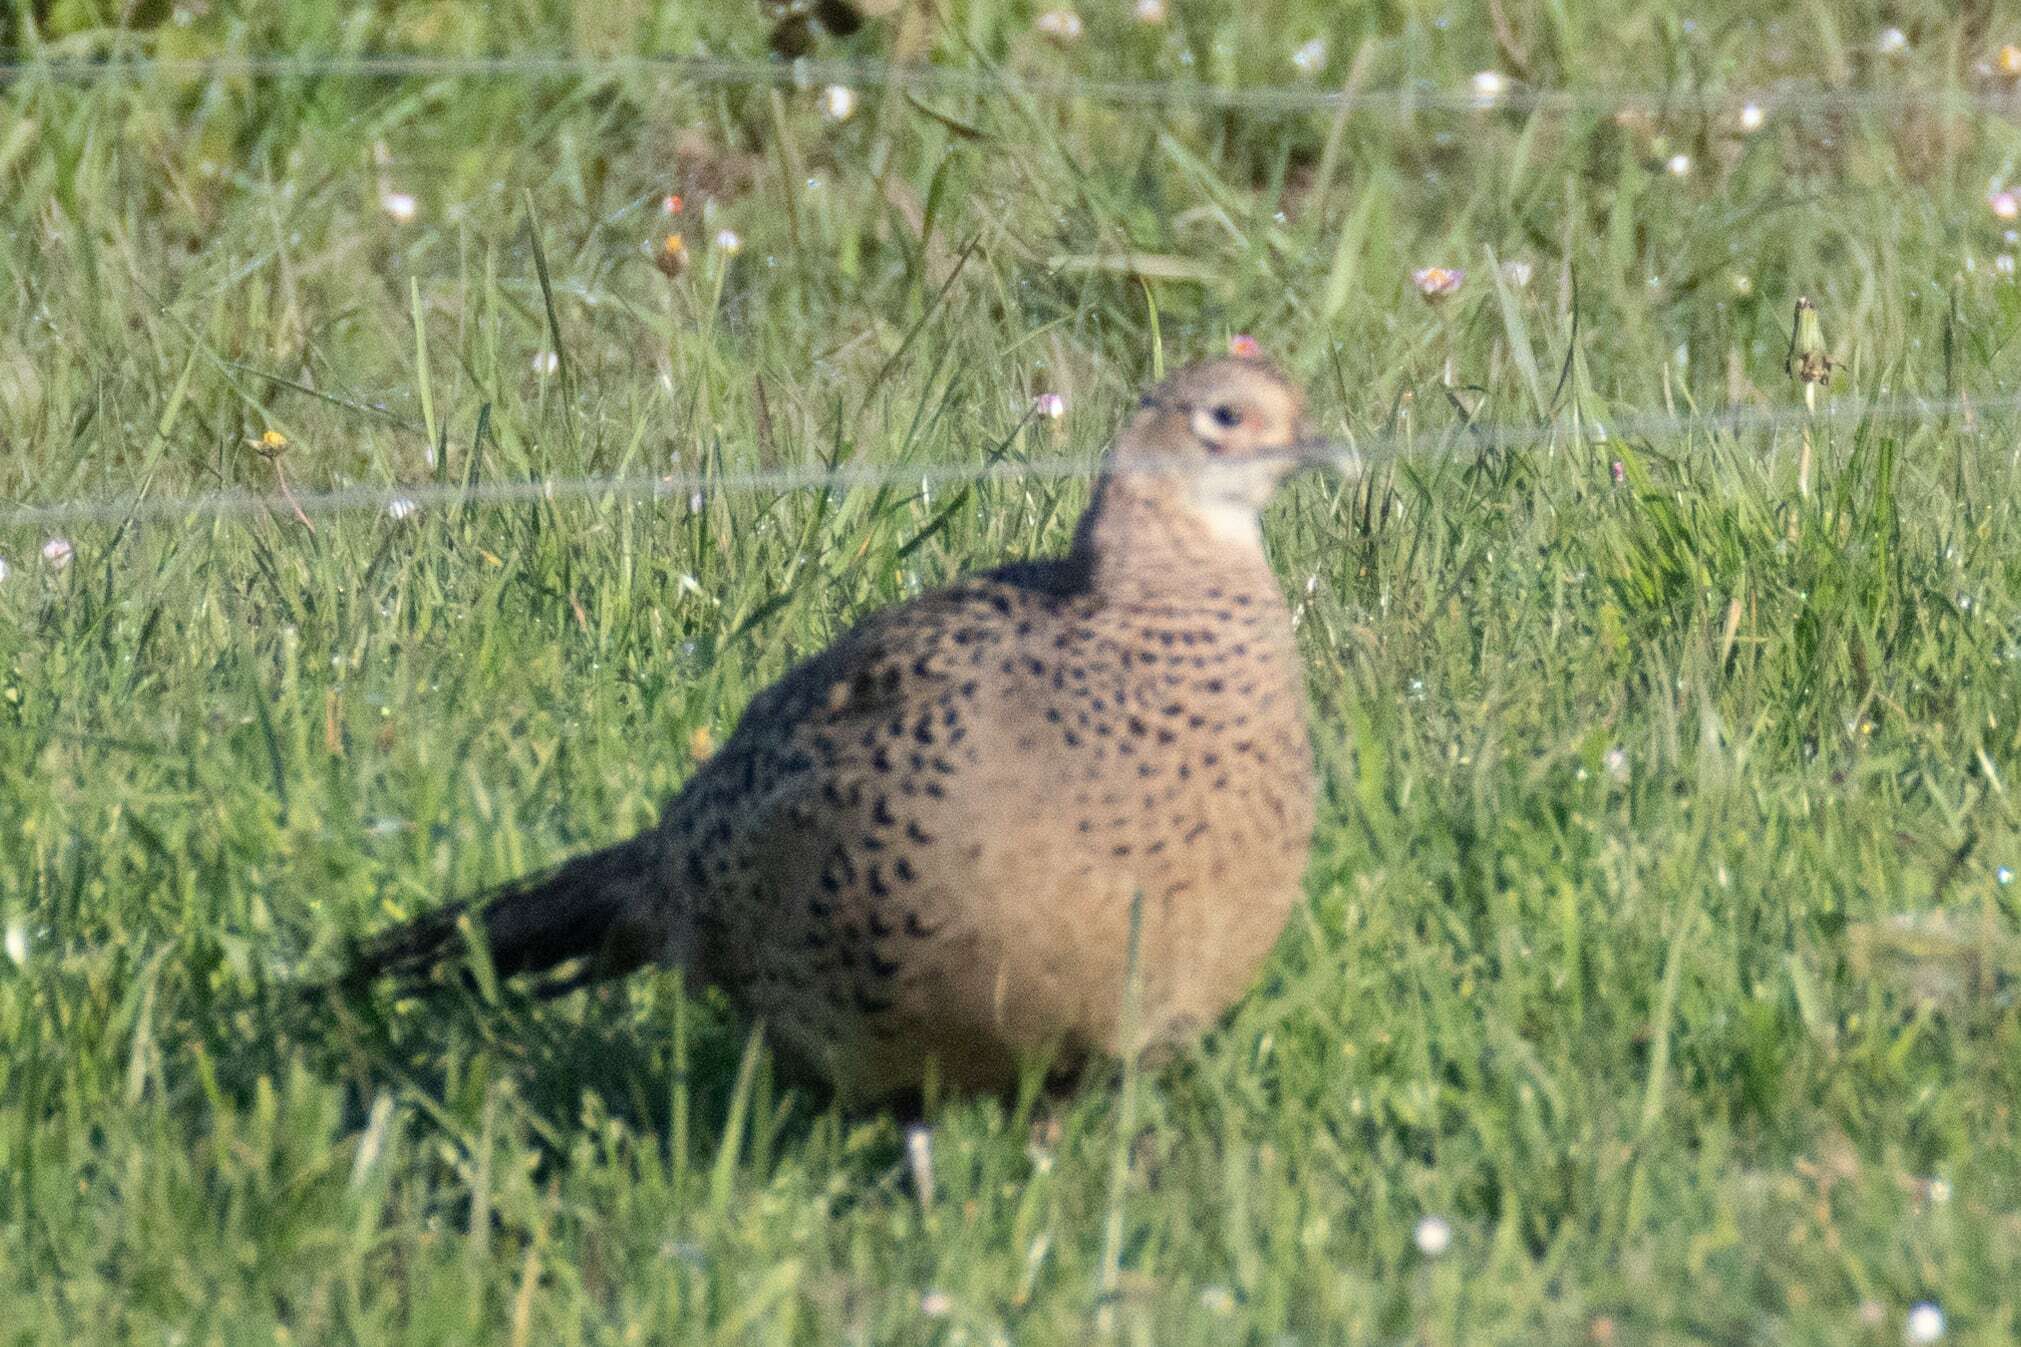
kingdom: Animalia
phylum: Chordata
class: Aves
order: Galliformes
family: Phasianidae
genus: Phasianus
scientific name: Phasianus colchicus
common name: Common pheasant
